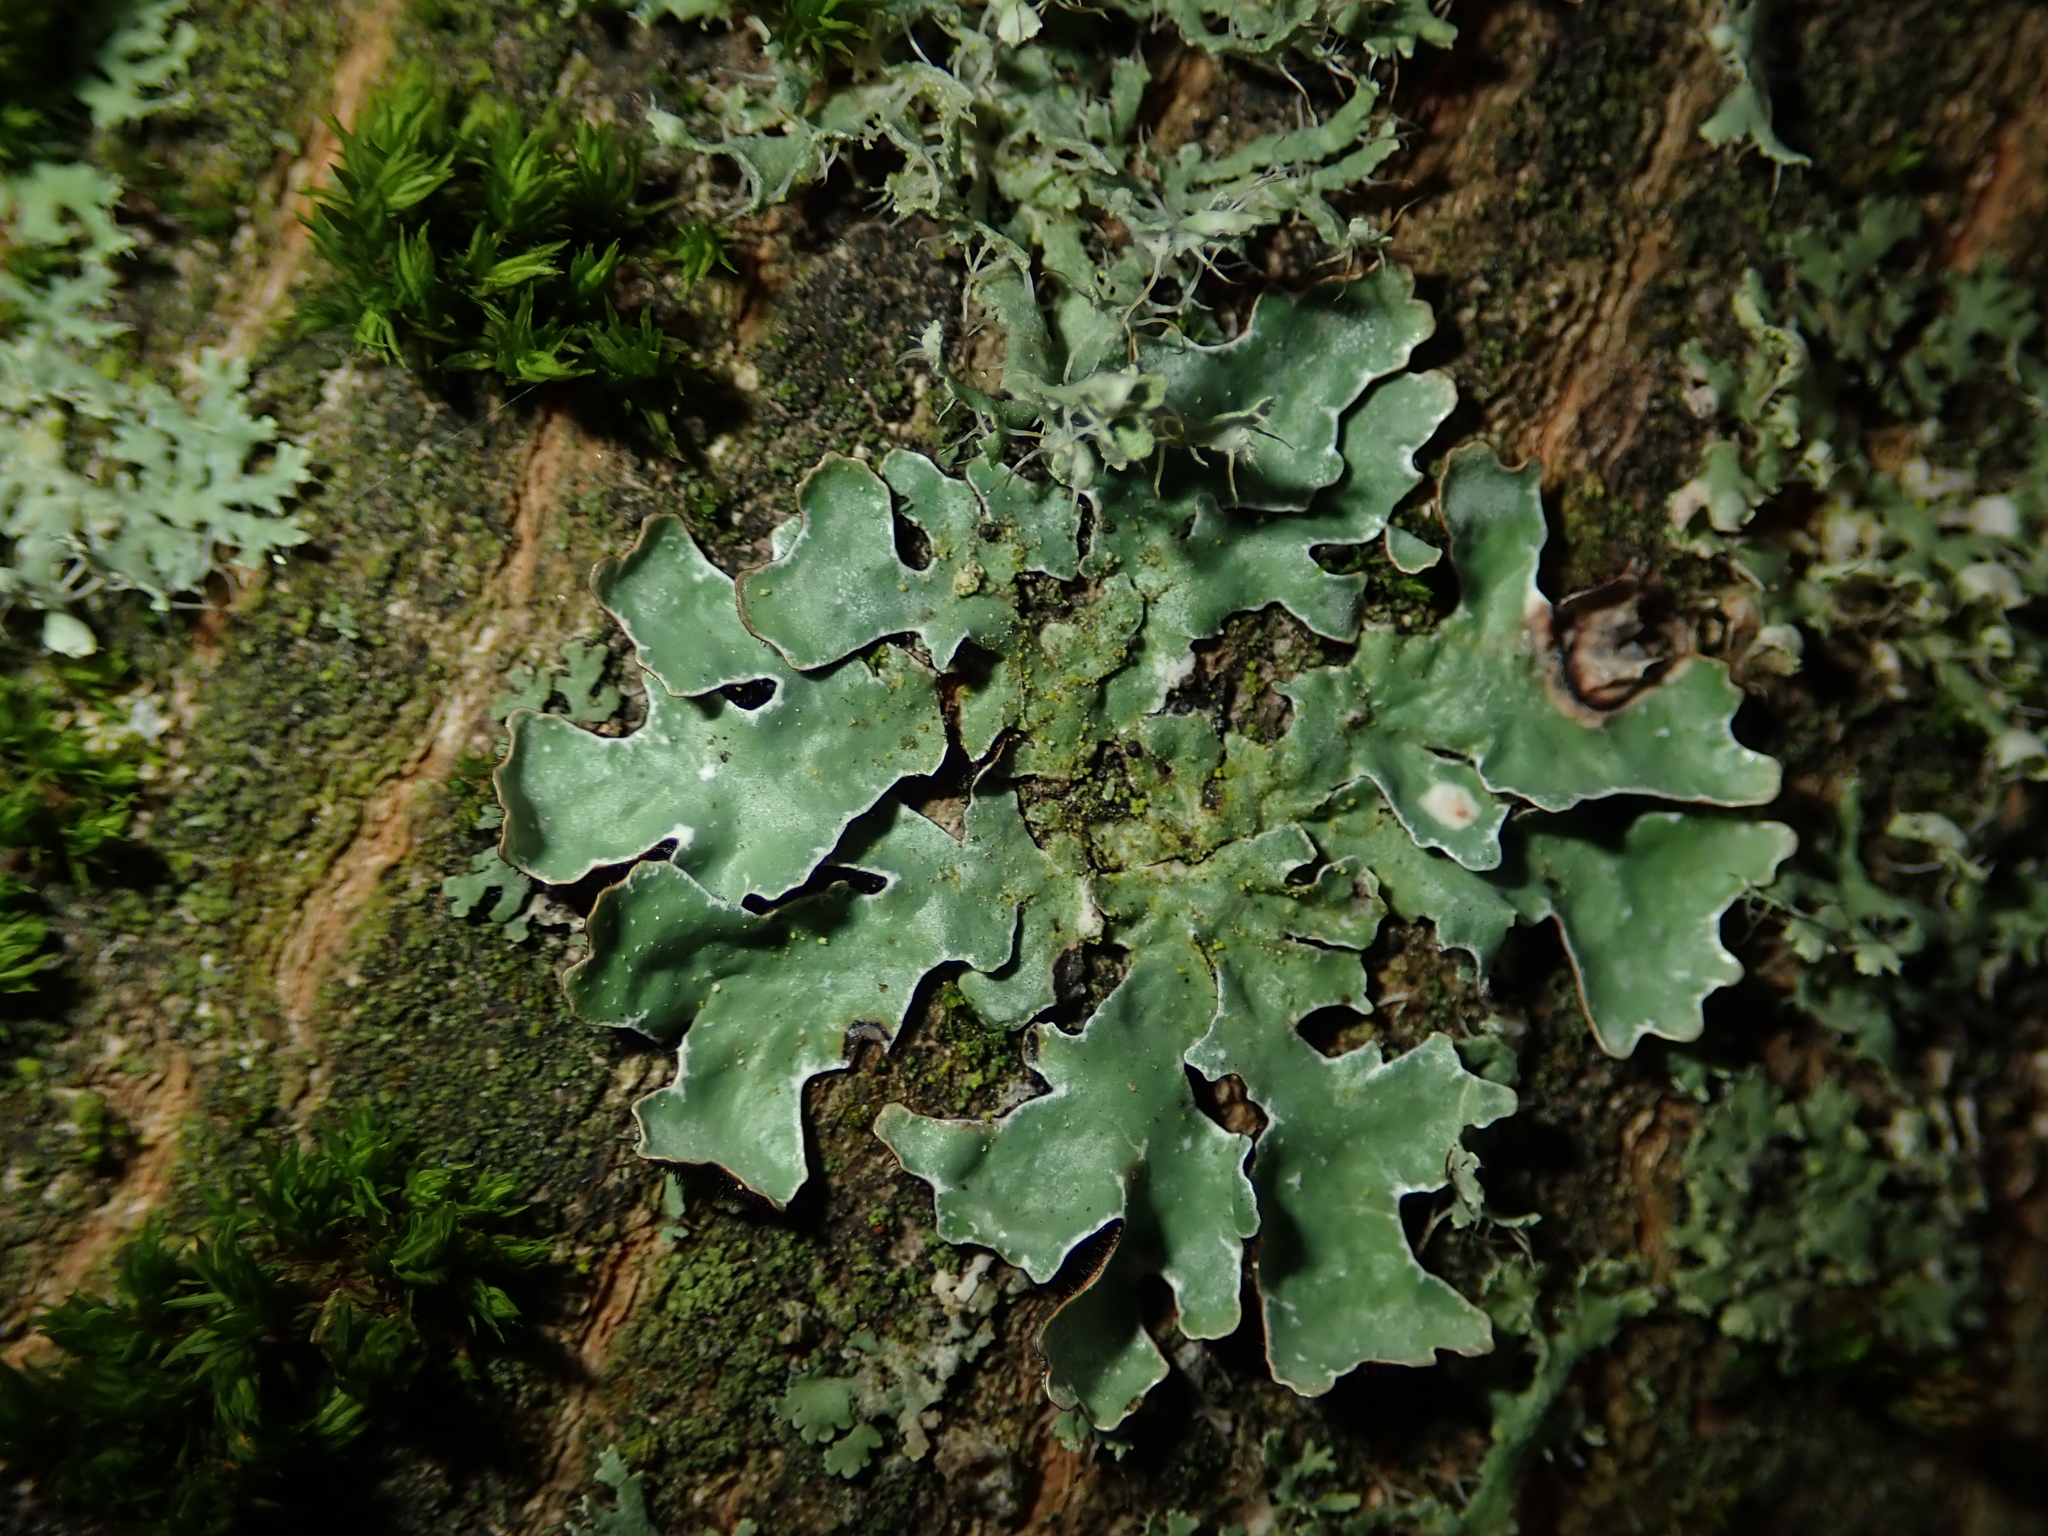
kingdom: Fungi
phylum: Ascomycota
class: Lecanoromycetes
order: Lecanorales
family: Parmeliaceae
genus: Parmelia
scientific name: Parmelia sulcata
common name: Netted shield lichen
